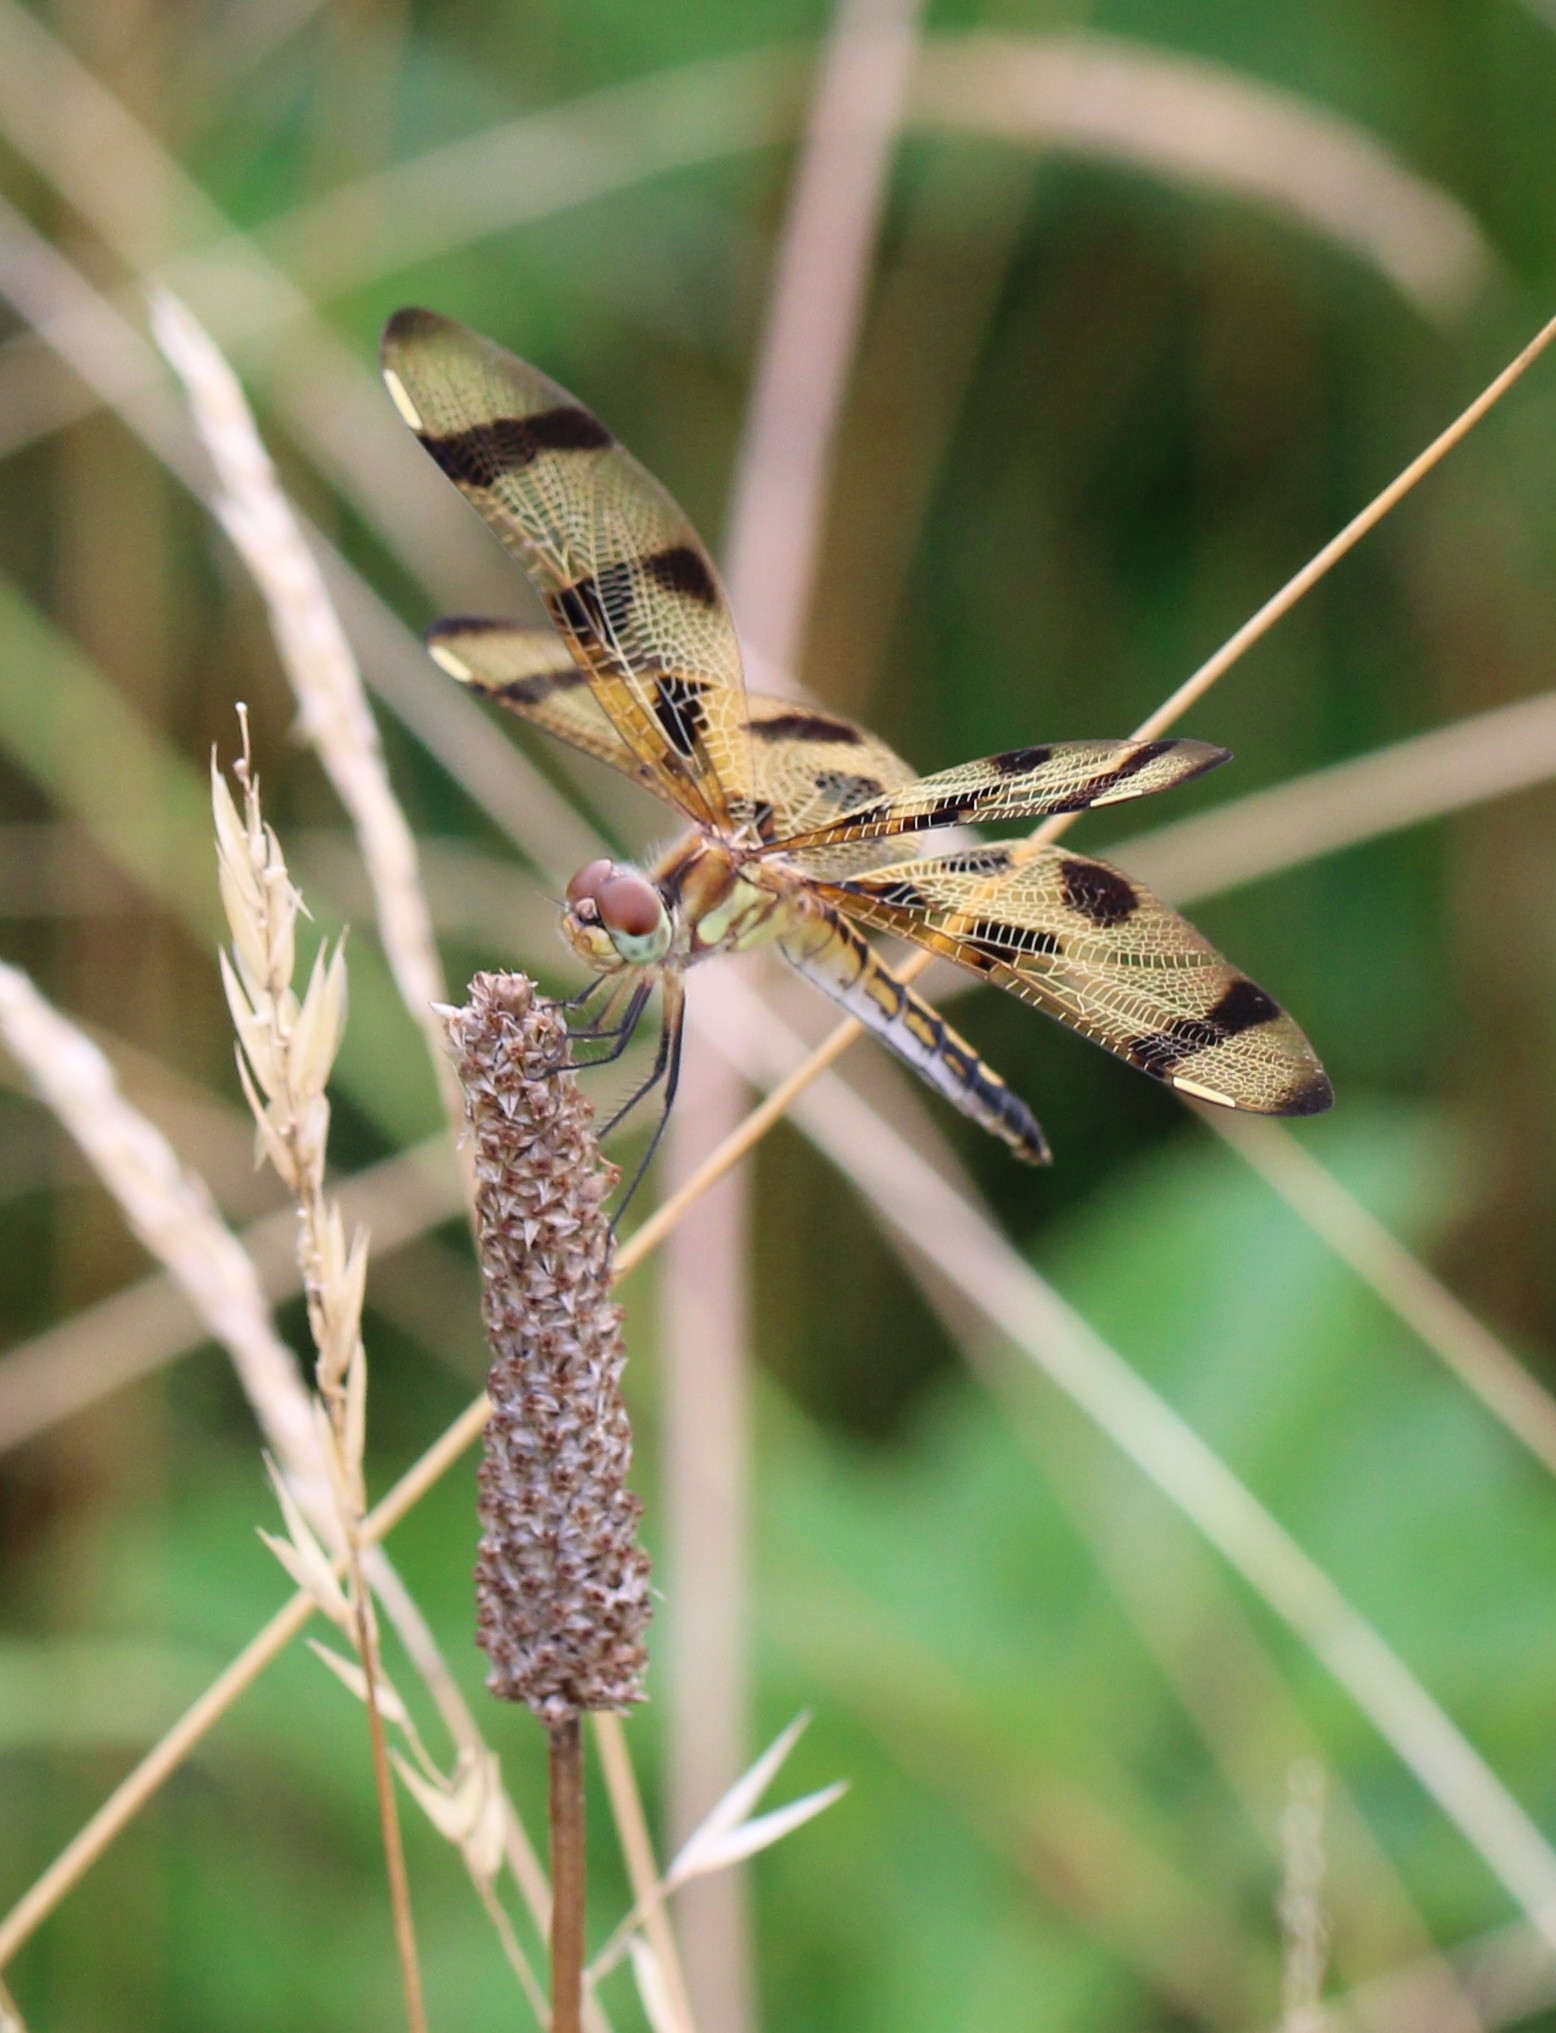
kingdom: Animalia
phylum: Arthropoda
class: Insecta
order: Odonata
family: Libellulidae
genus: Celithemis
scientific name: Celithemis eponina
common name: Halloween pennant
